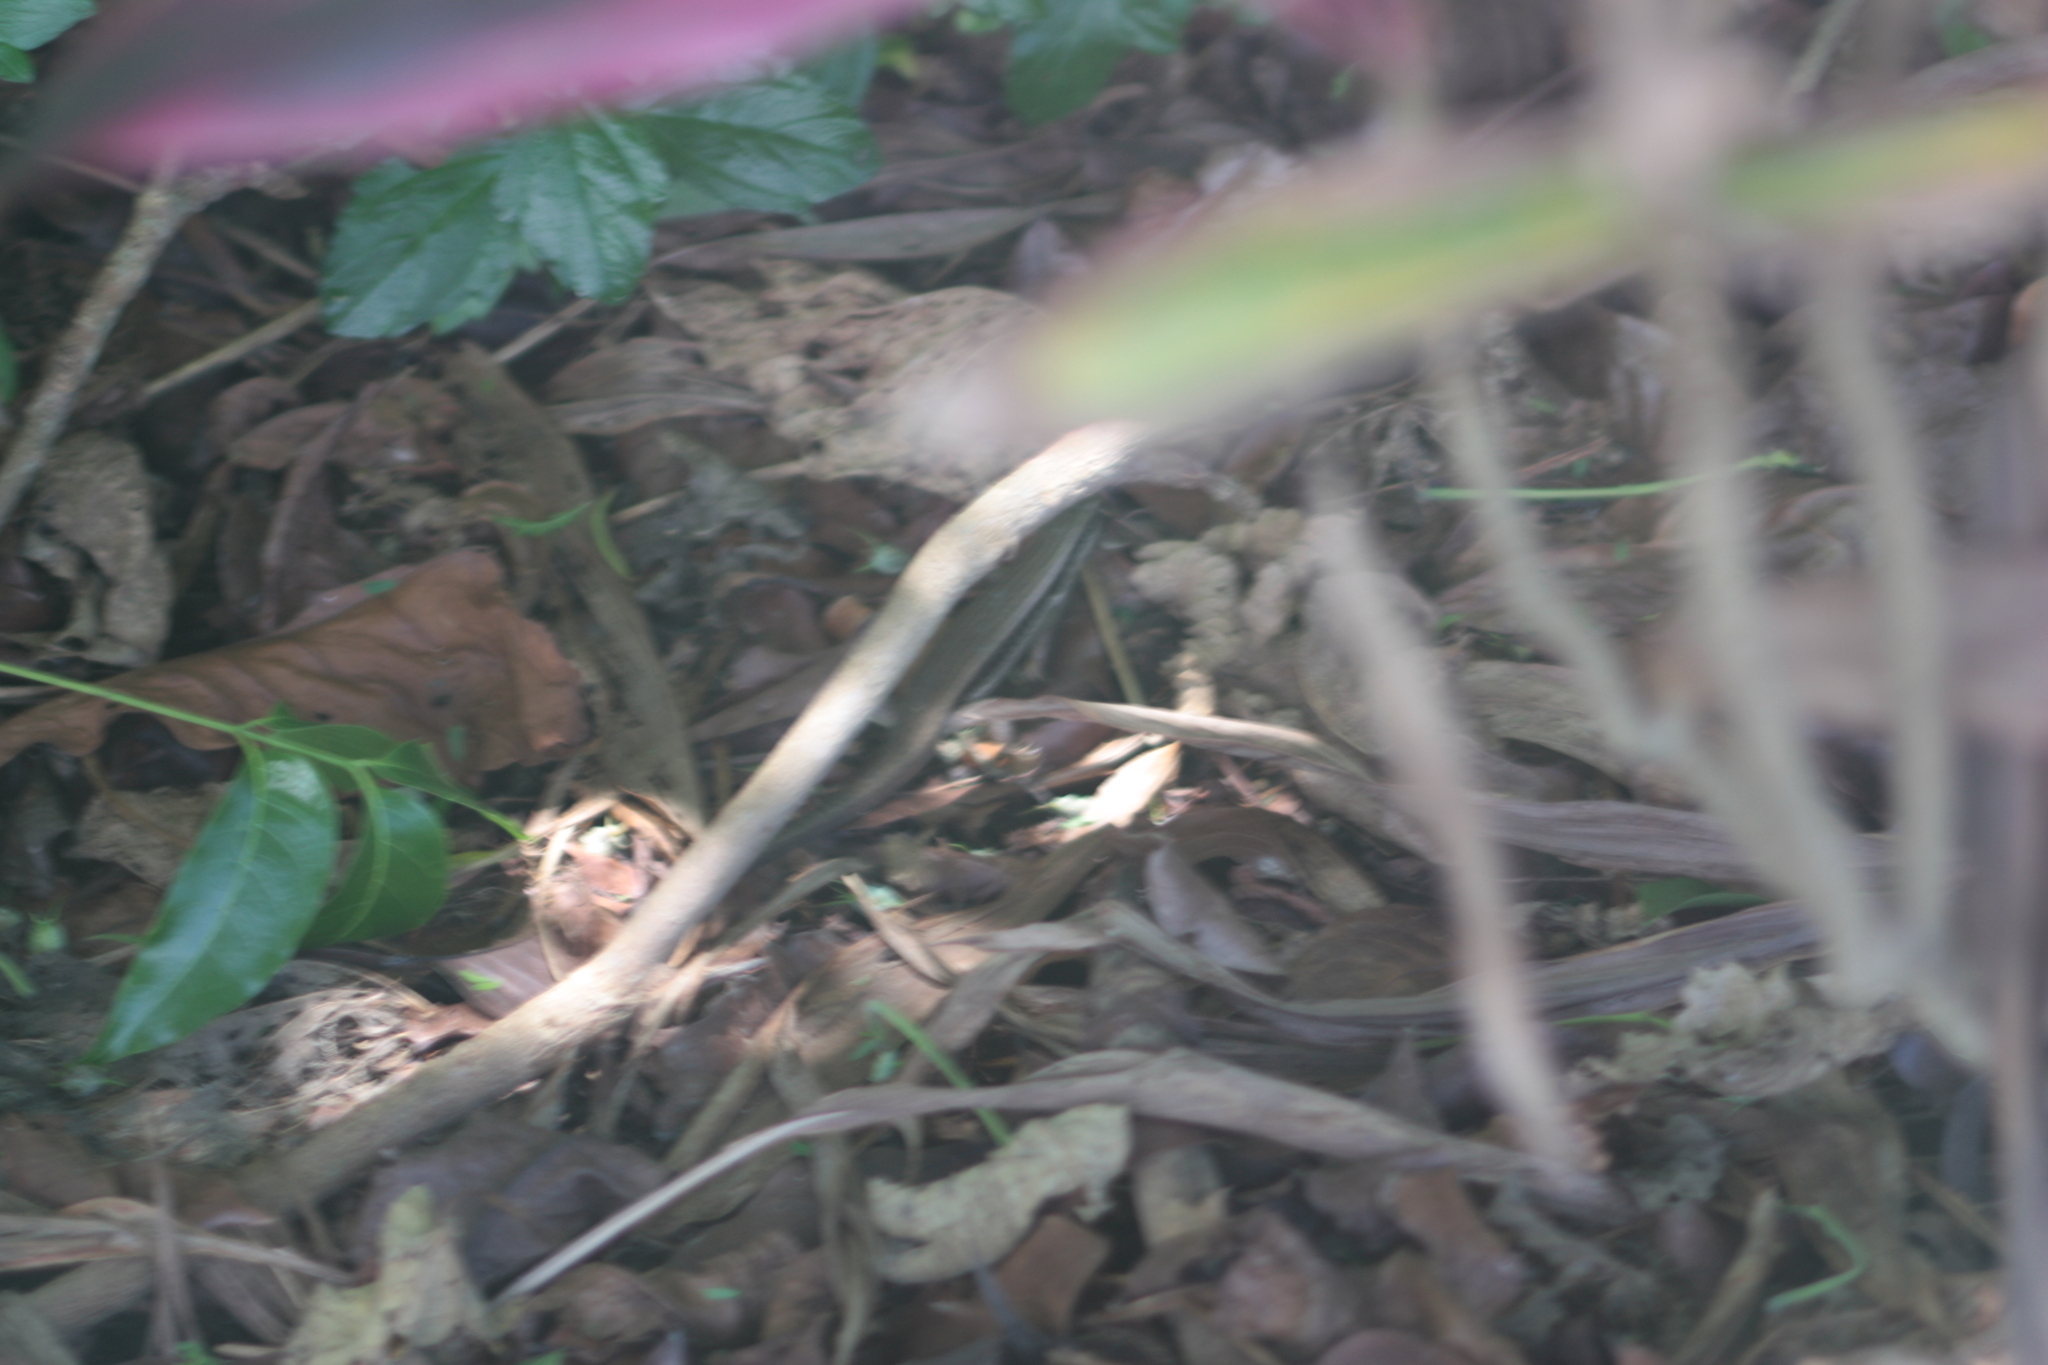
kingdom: Animalia
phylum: Chordata
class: Squamata
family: Scincidae
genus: Eutropis
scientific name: Eutropis longicaudata
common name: Long-tailed sun skink
